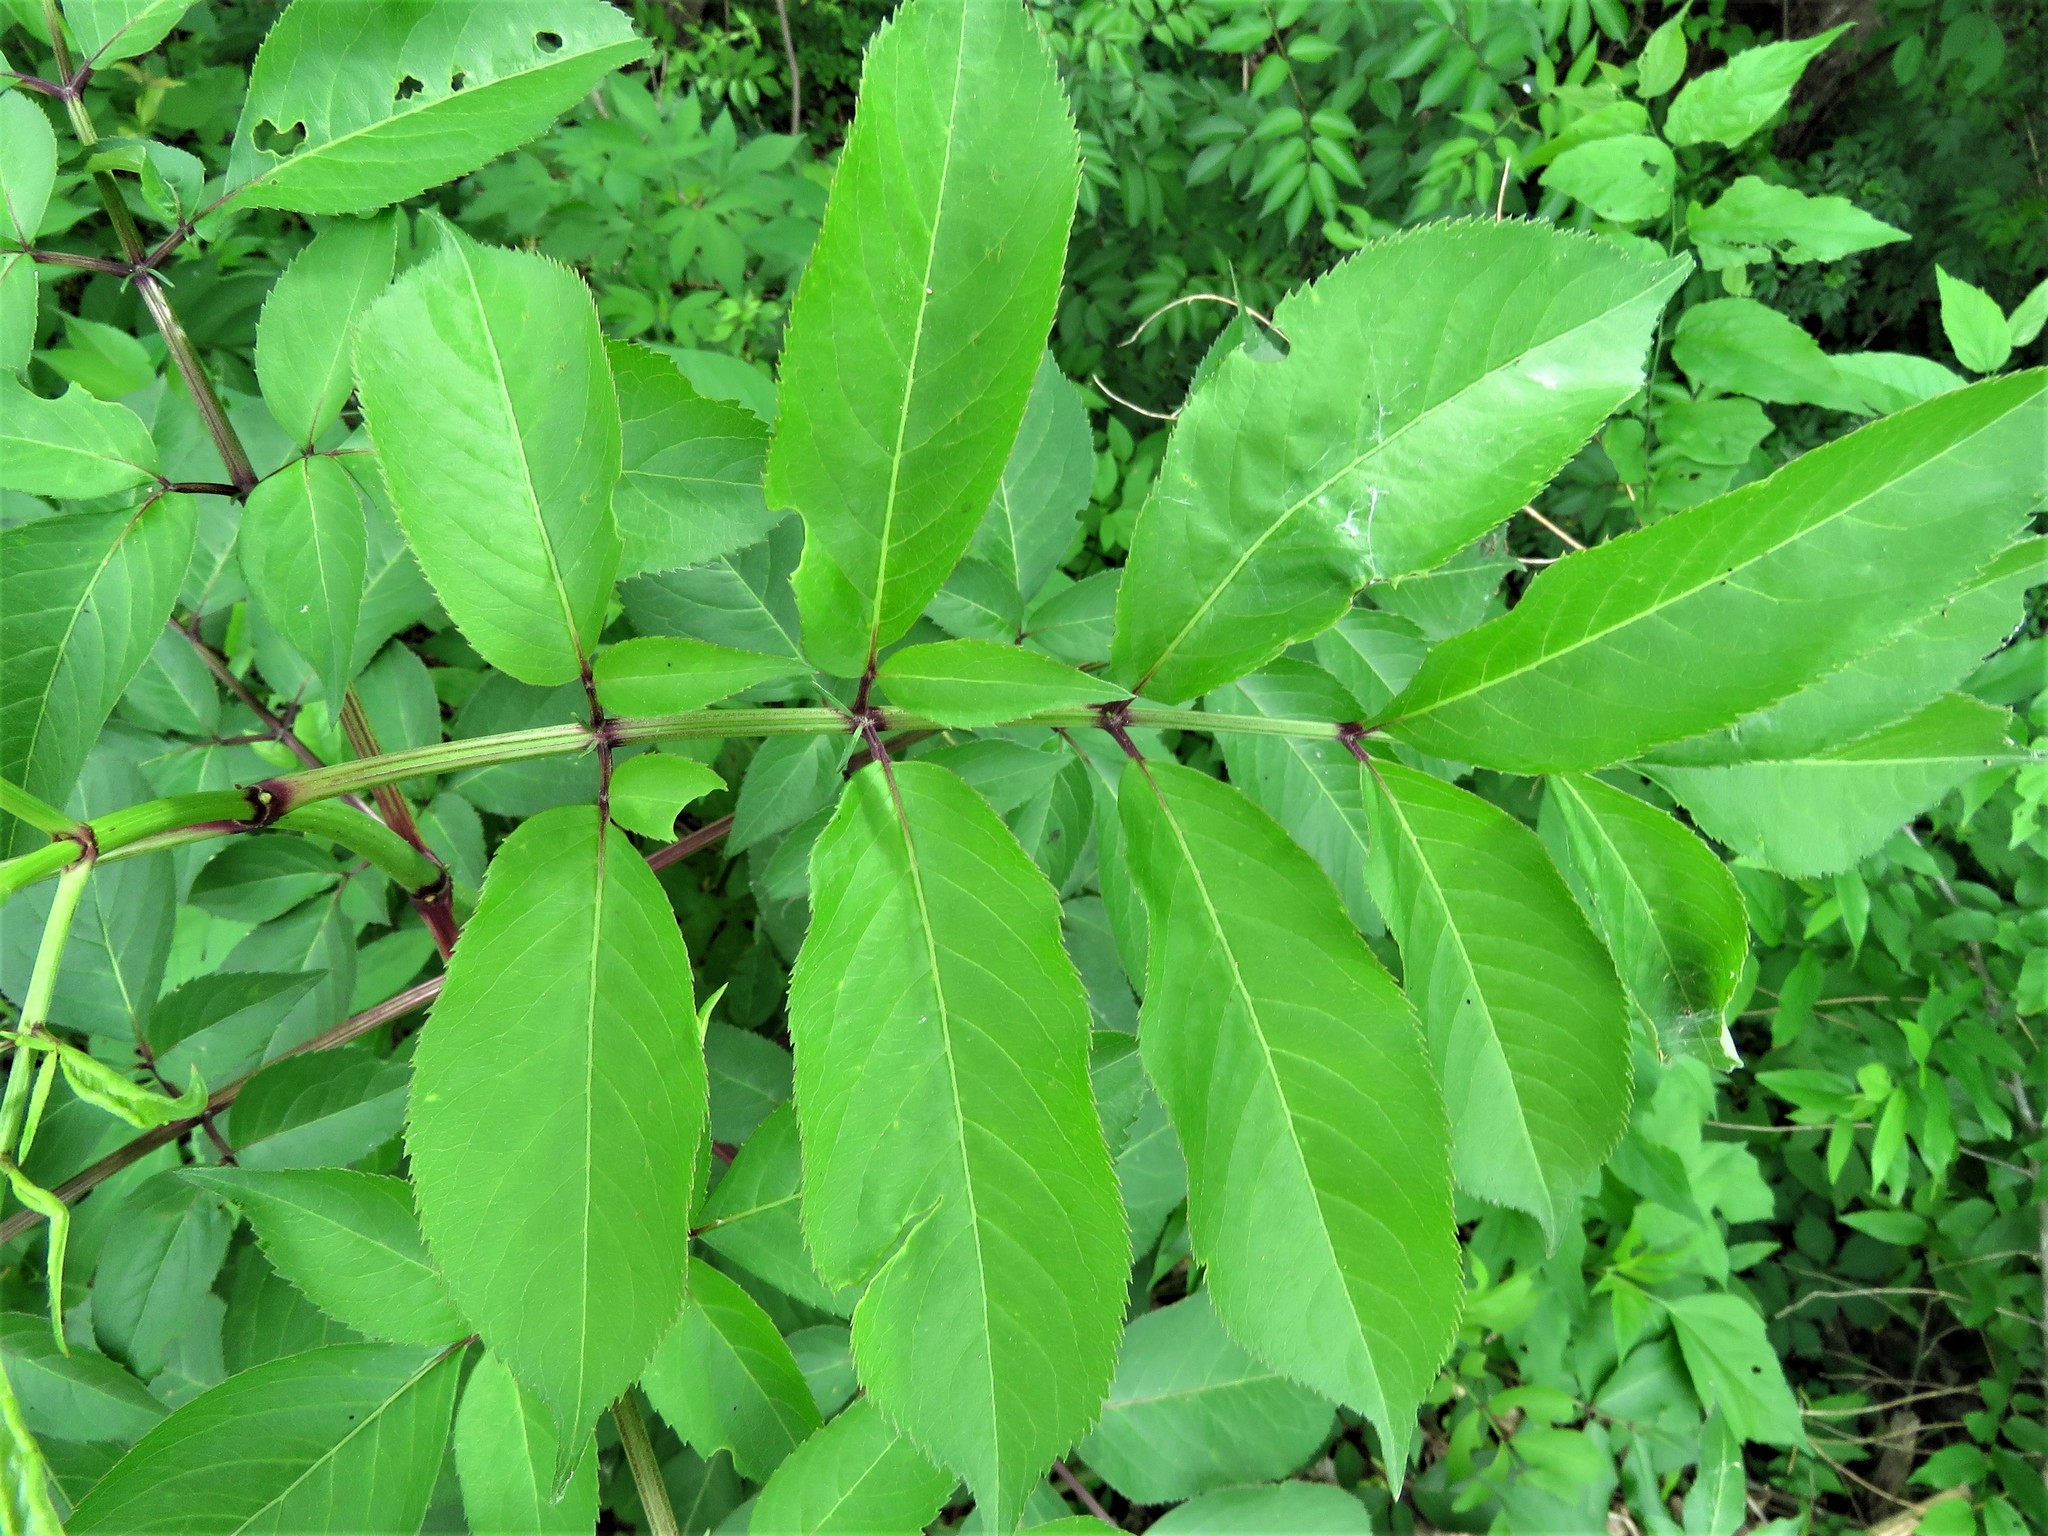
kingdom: Plantae
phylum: Tracheophyta
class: Magnoliopsida
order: Sapindales
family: Rutaceae
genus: Zanthoxylum
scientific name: Zanthoxylum clava-herculis
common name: Hercules'-club
